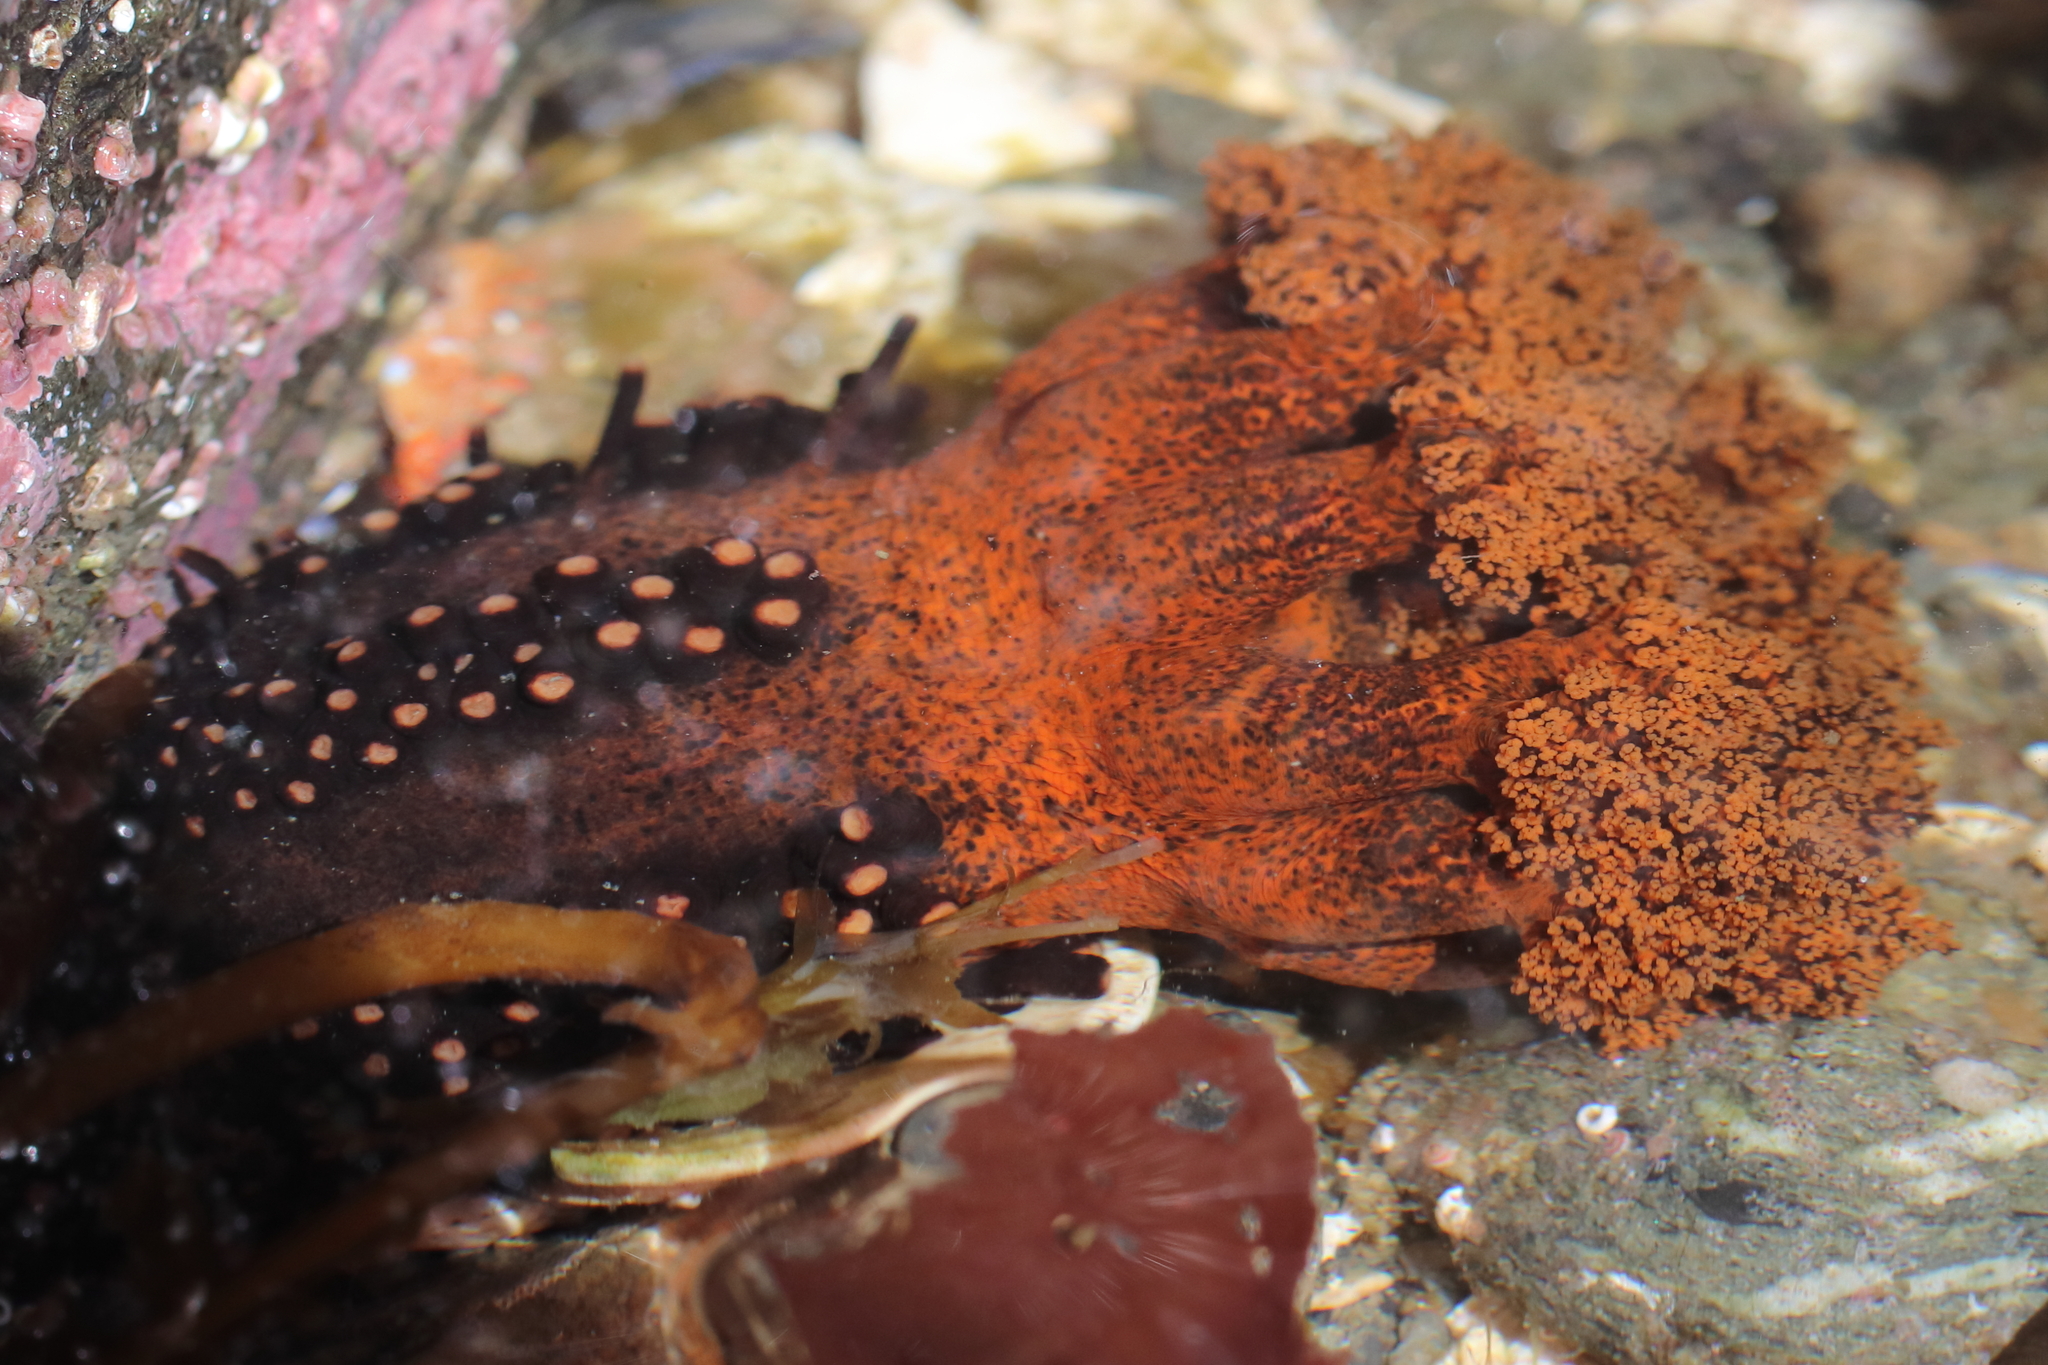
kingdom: Animalia
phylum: Echinodermata
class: Holothuroidea
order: Dendrochirotida
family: Cucumariidae
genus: Cucumaria
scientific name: Cucumaria miniata
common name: Orange sea cucumber
